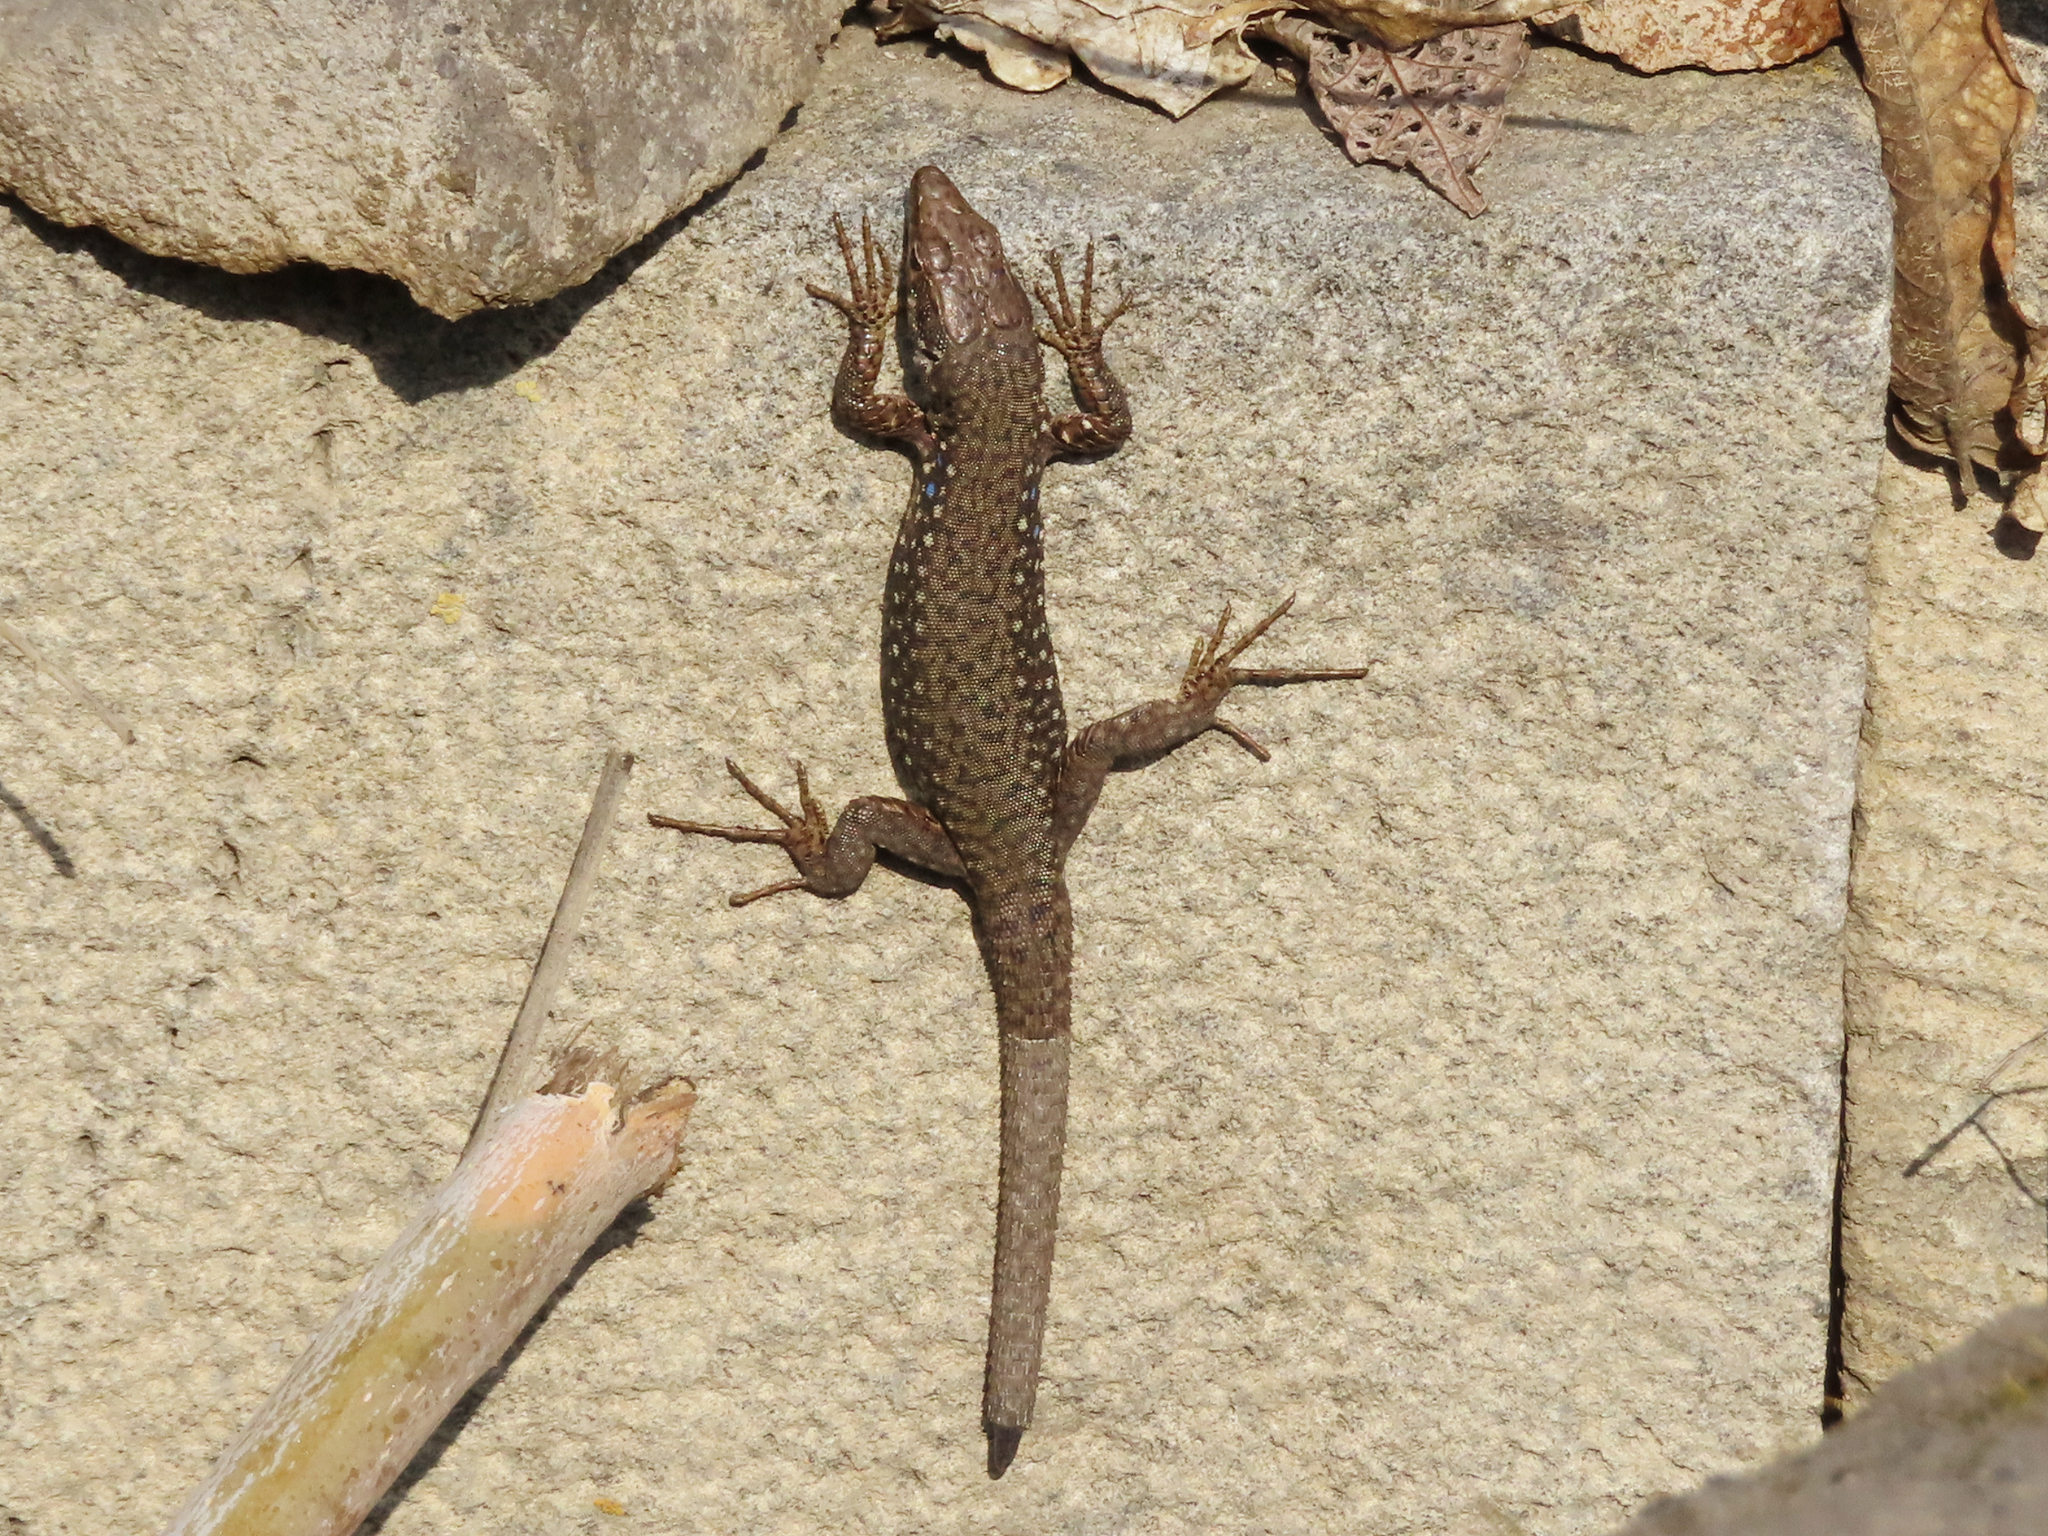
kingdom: Animalia
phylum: Chordata
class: Squamata
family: Lacertidae
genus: Darevskia
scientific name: Darevskia
